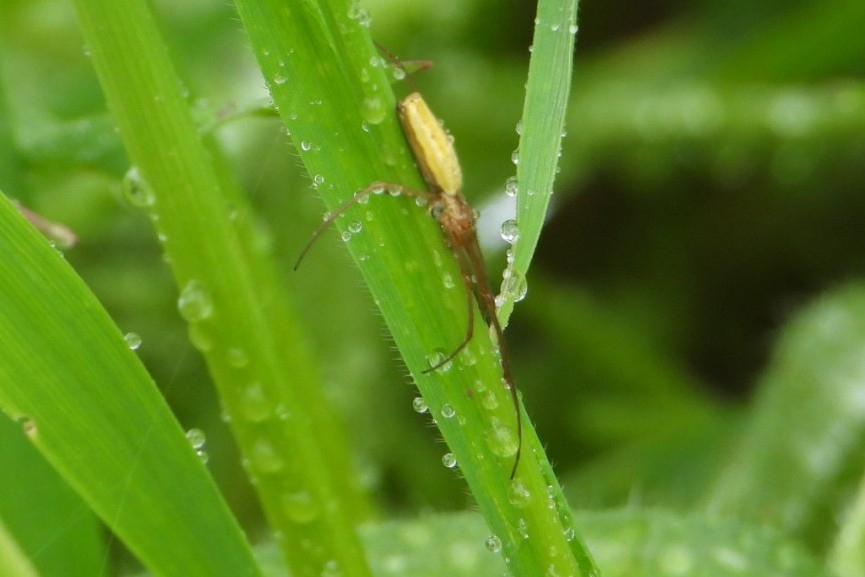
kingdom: Animalia
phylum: Arthropoda
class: Arachnida
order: Araneae
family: Tetragnathidae
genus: Tetragnatha
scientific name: Tetragnatha laboriosa
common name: Longjawed orb weavers
